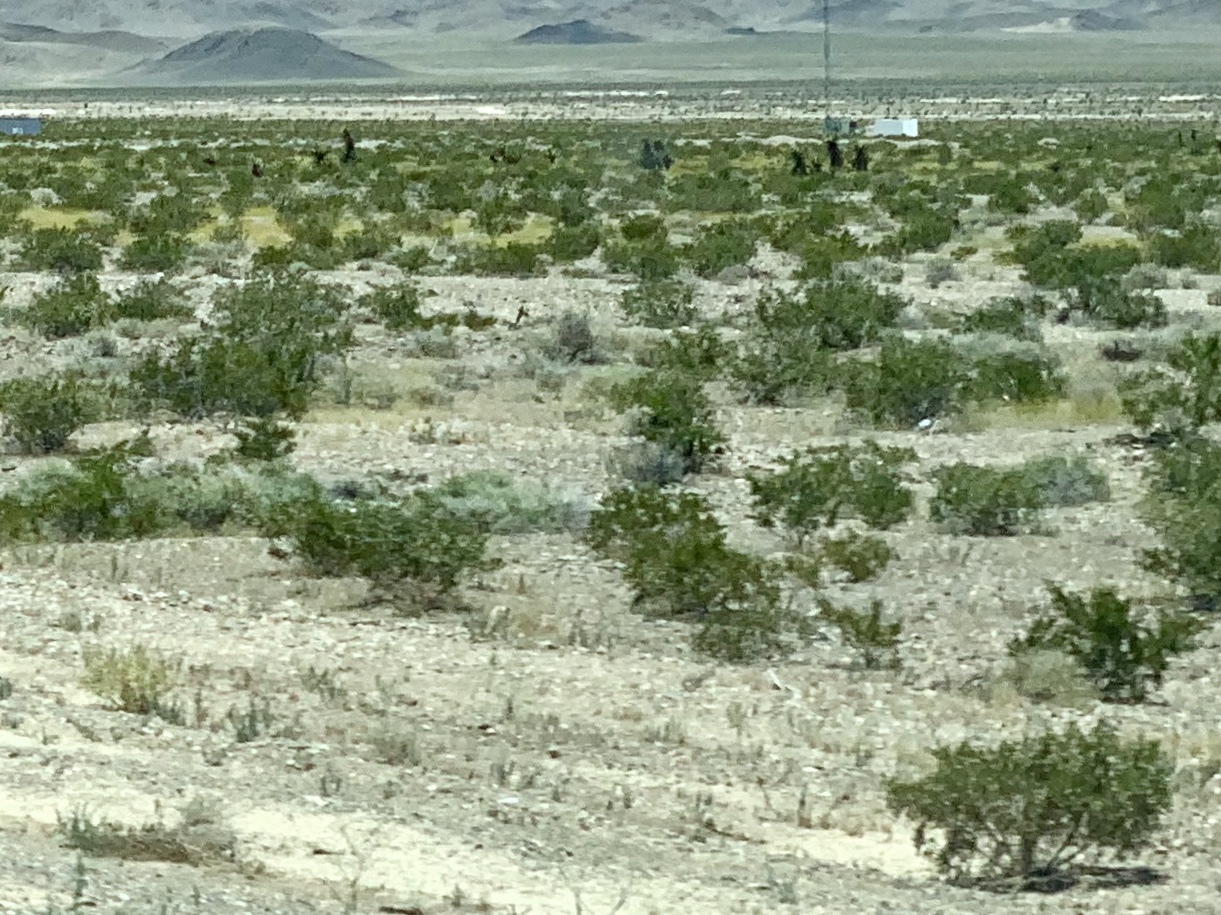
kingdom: Plantae
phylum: Tracheophyta
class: Magnoliopsida
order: Zygophyllales
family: Zygophyllaceae
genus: Larrea
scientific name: Larrea tridentata
